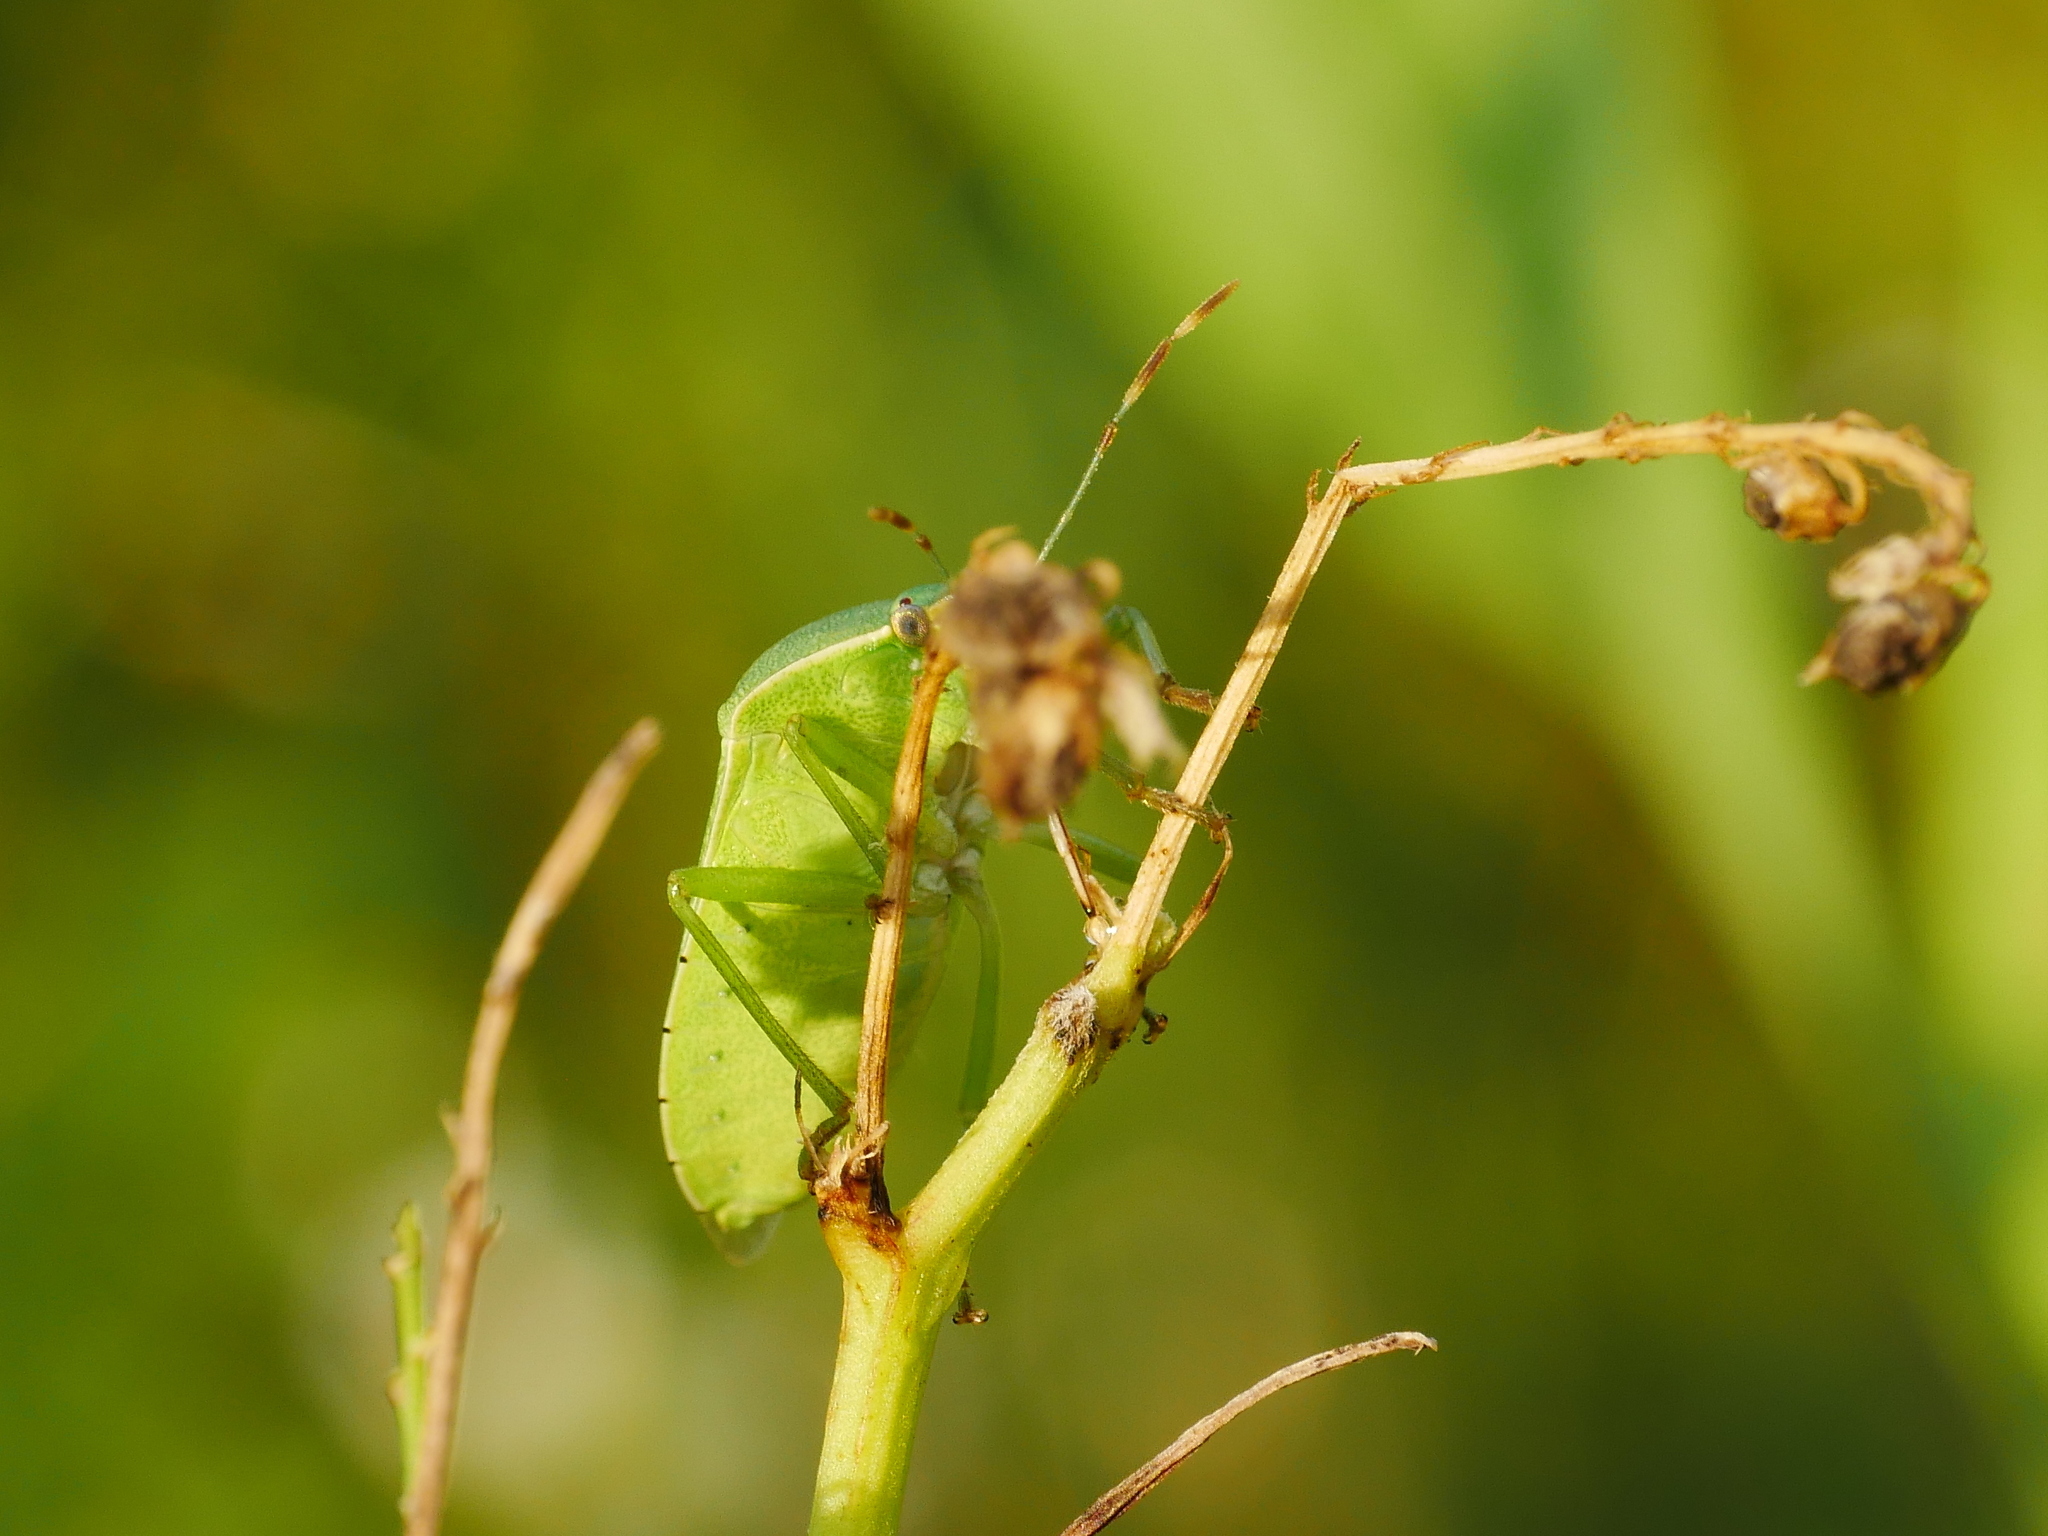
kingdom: Animalia
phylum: Arthropoda
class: Insecta
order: Hemiptera
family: Pentatomidae
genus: Nezara
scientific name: Nezara viridula
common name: Southern green stink bug
